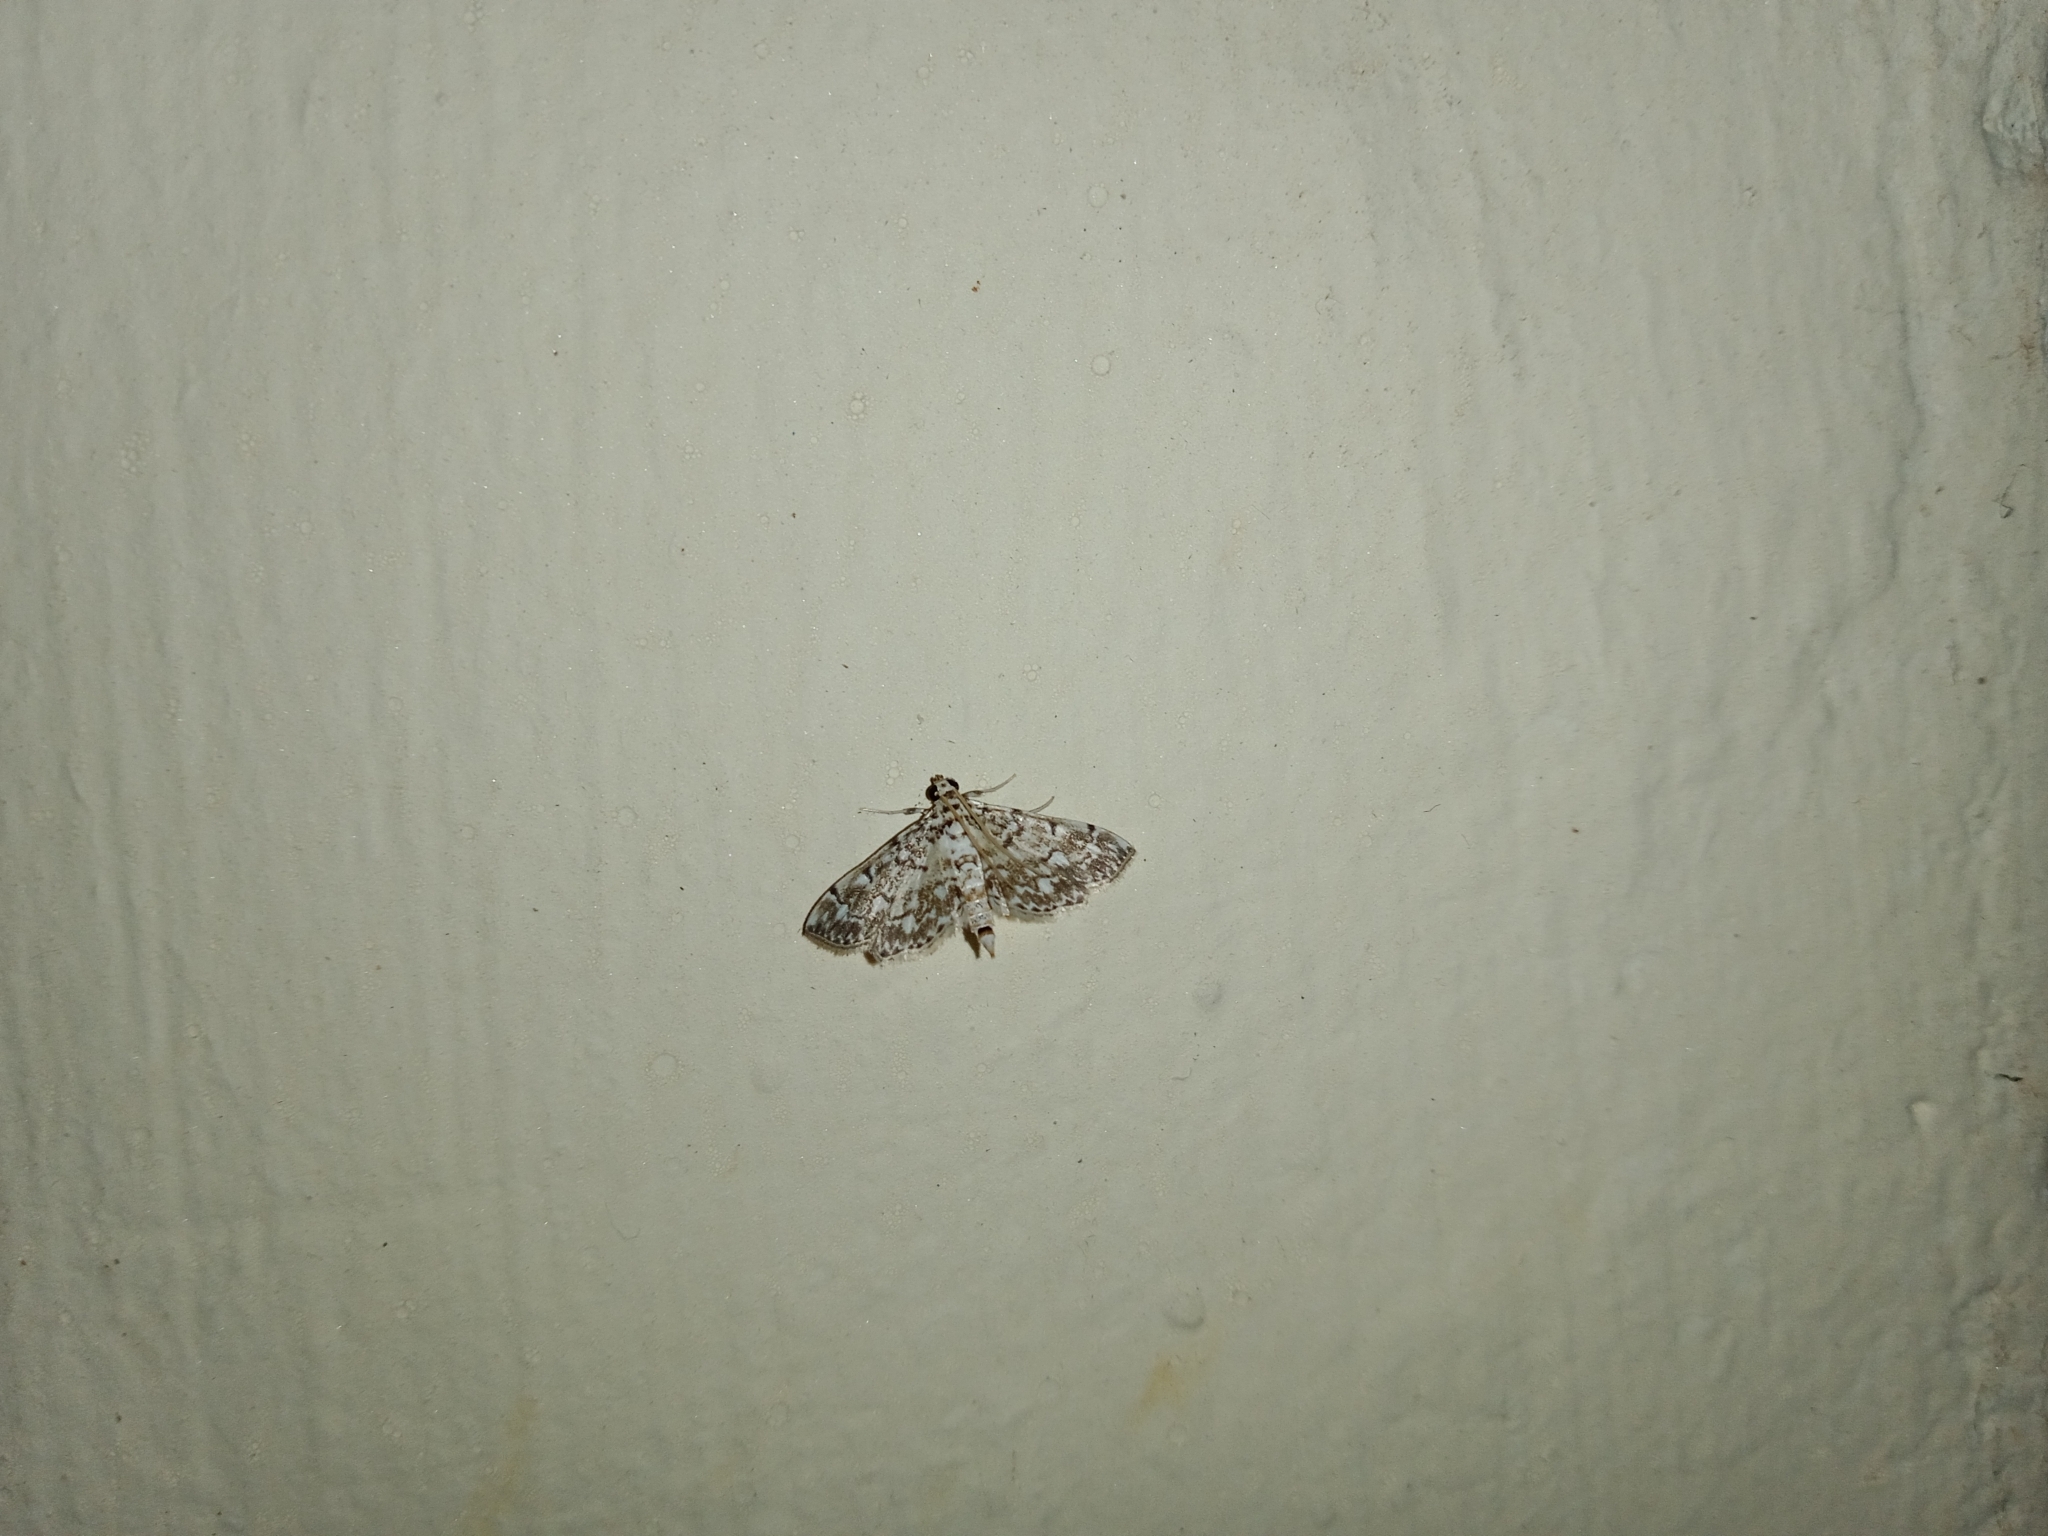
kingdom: Animalia
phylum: Arthropoda
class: Insecta
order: Lepidoptera
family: Crambidae
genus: Metoeca
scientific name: Metoeca foedalis
